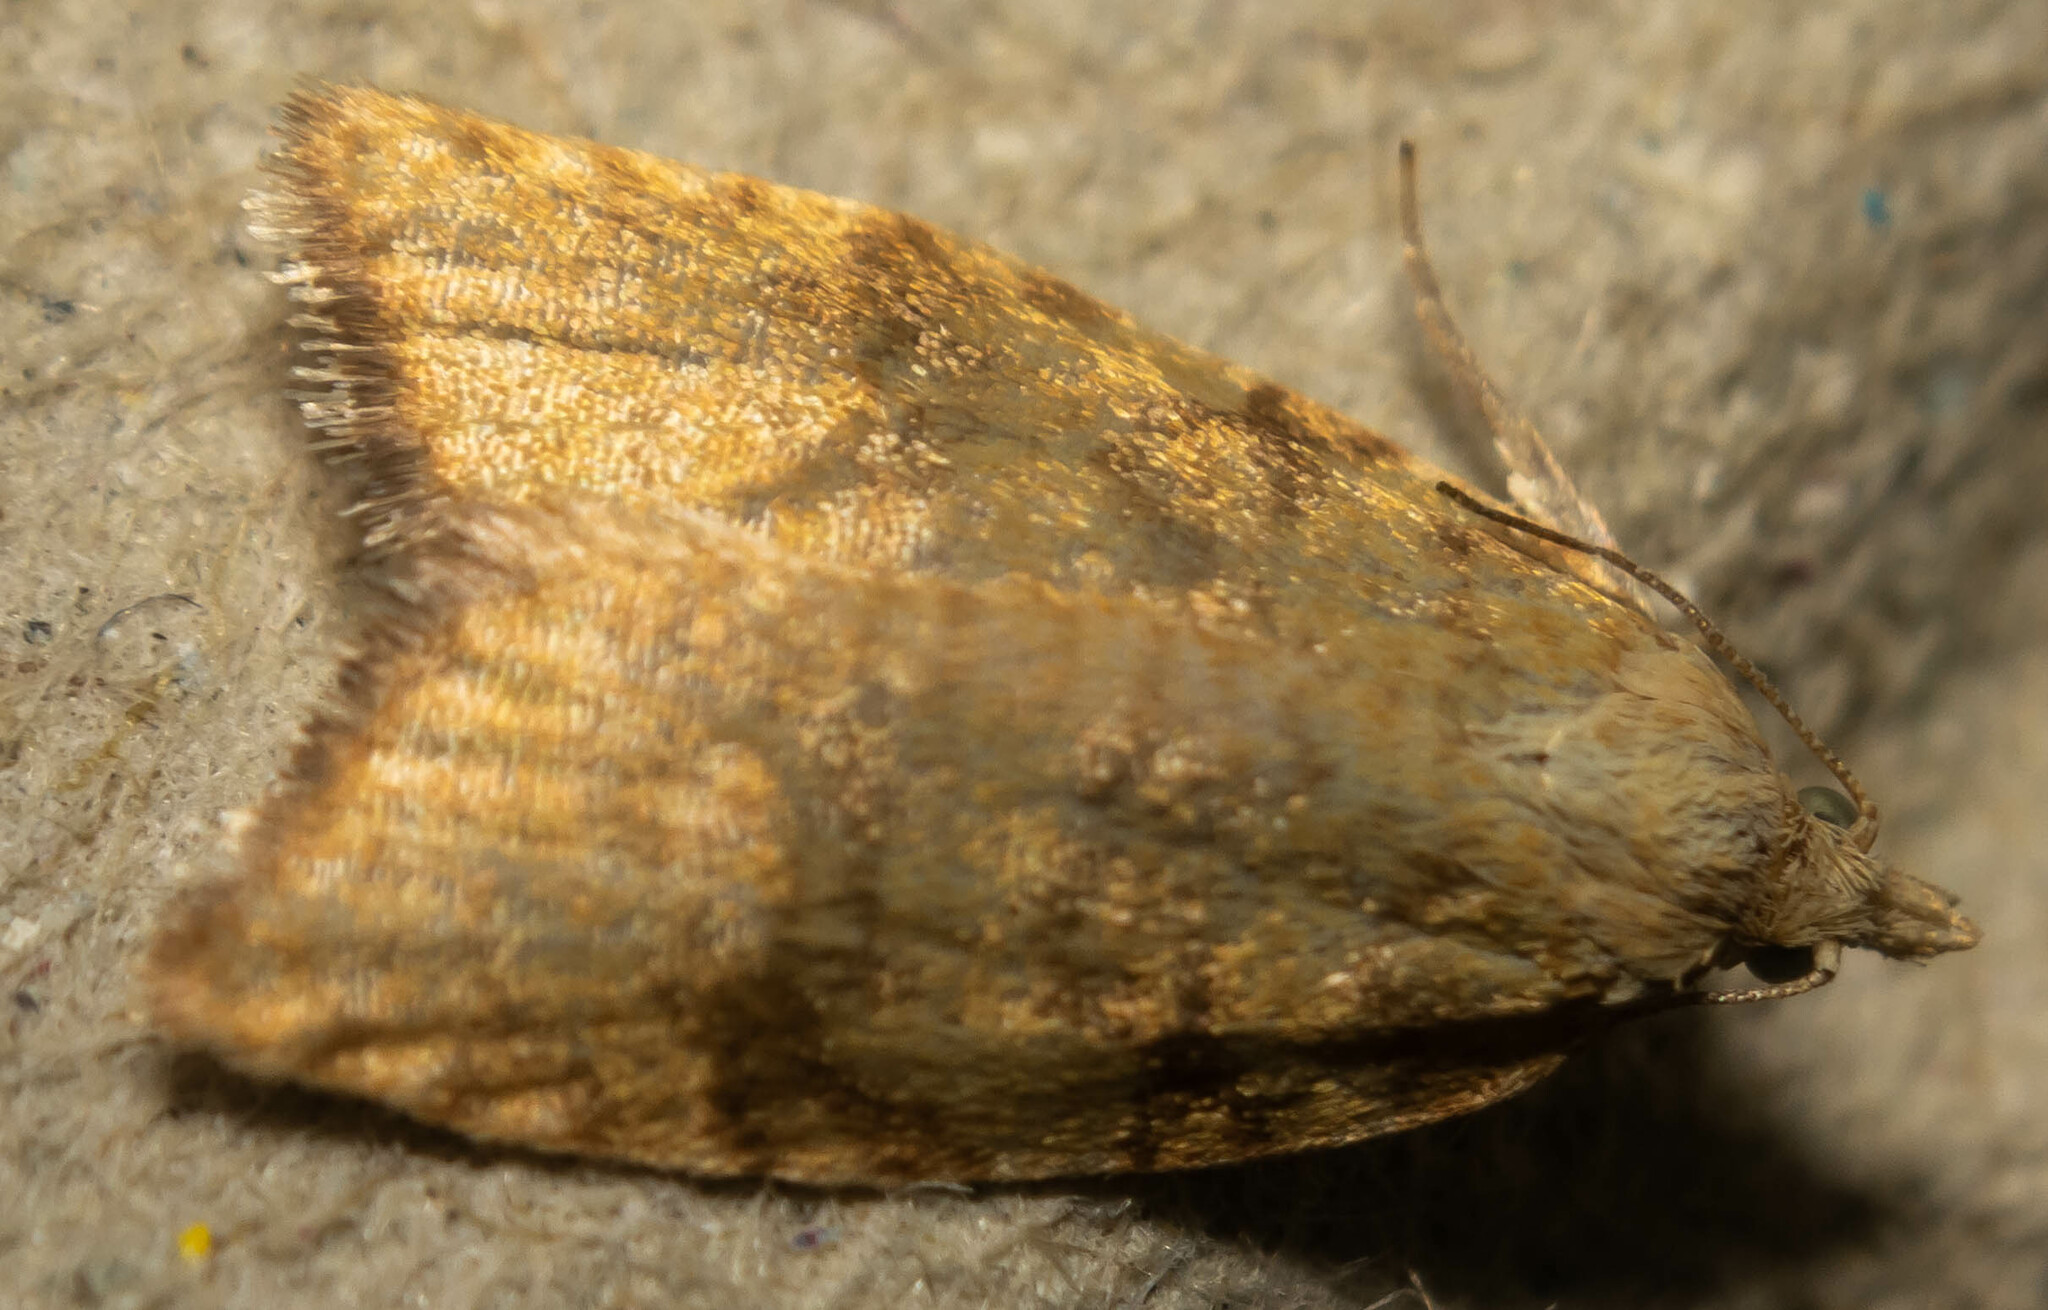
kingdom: Animalia
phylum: Arthropoda
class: Insecta
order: Lepidoptera
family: Tortricidae
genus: Aleimma
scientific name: Aleimma loeflingiana
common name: Yellow oak button
